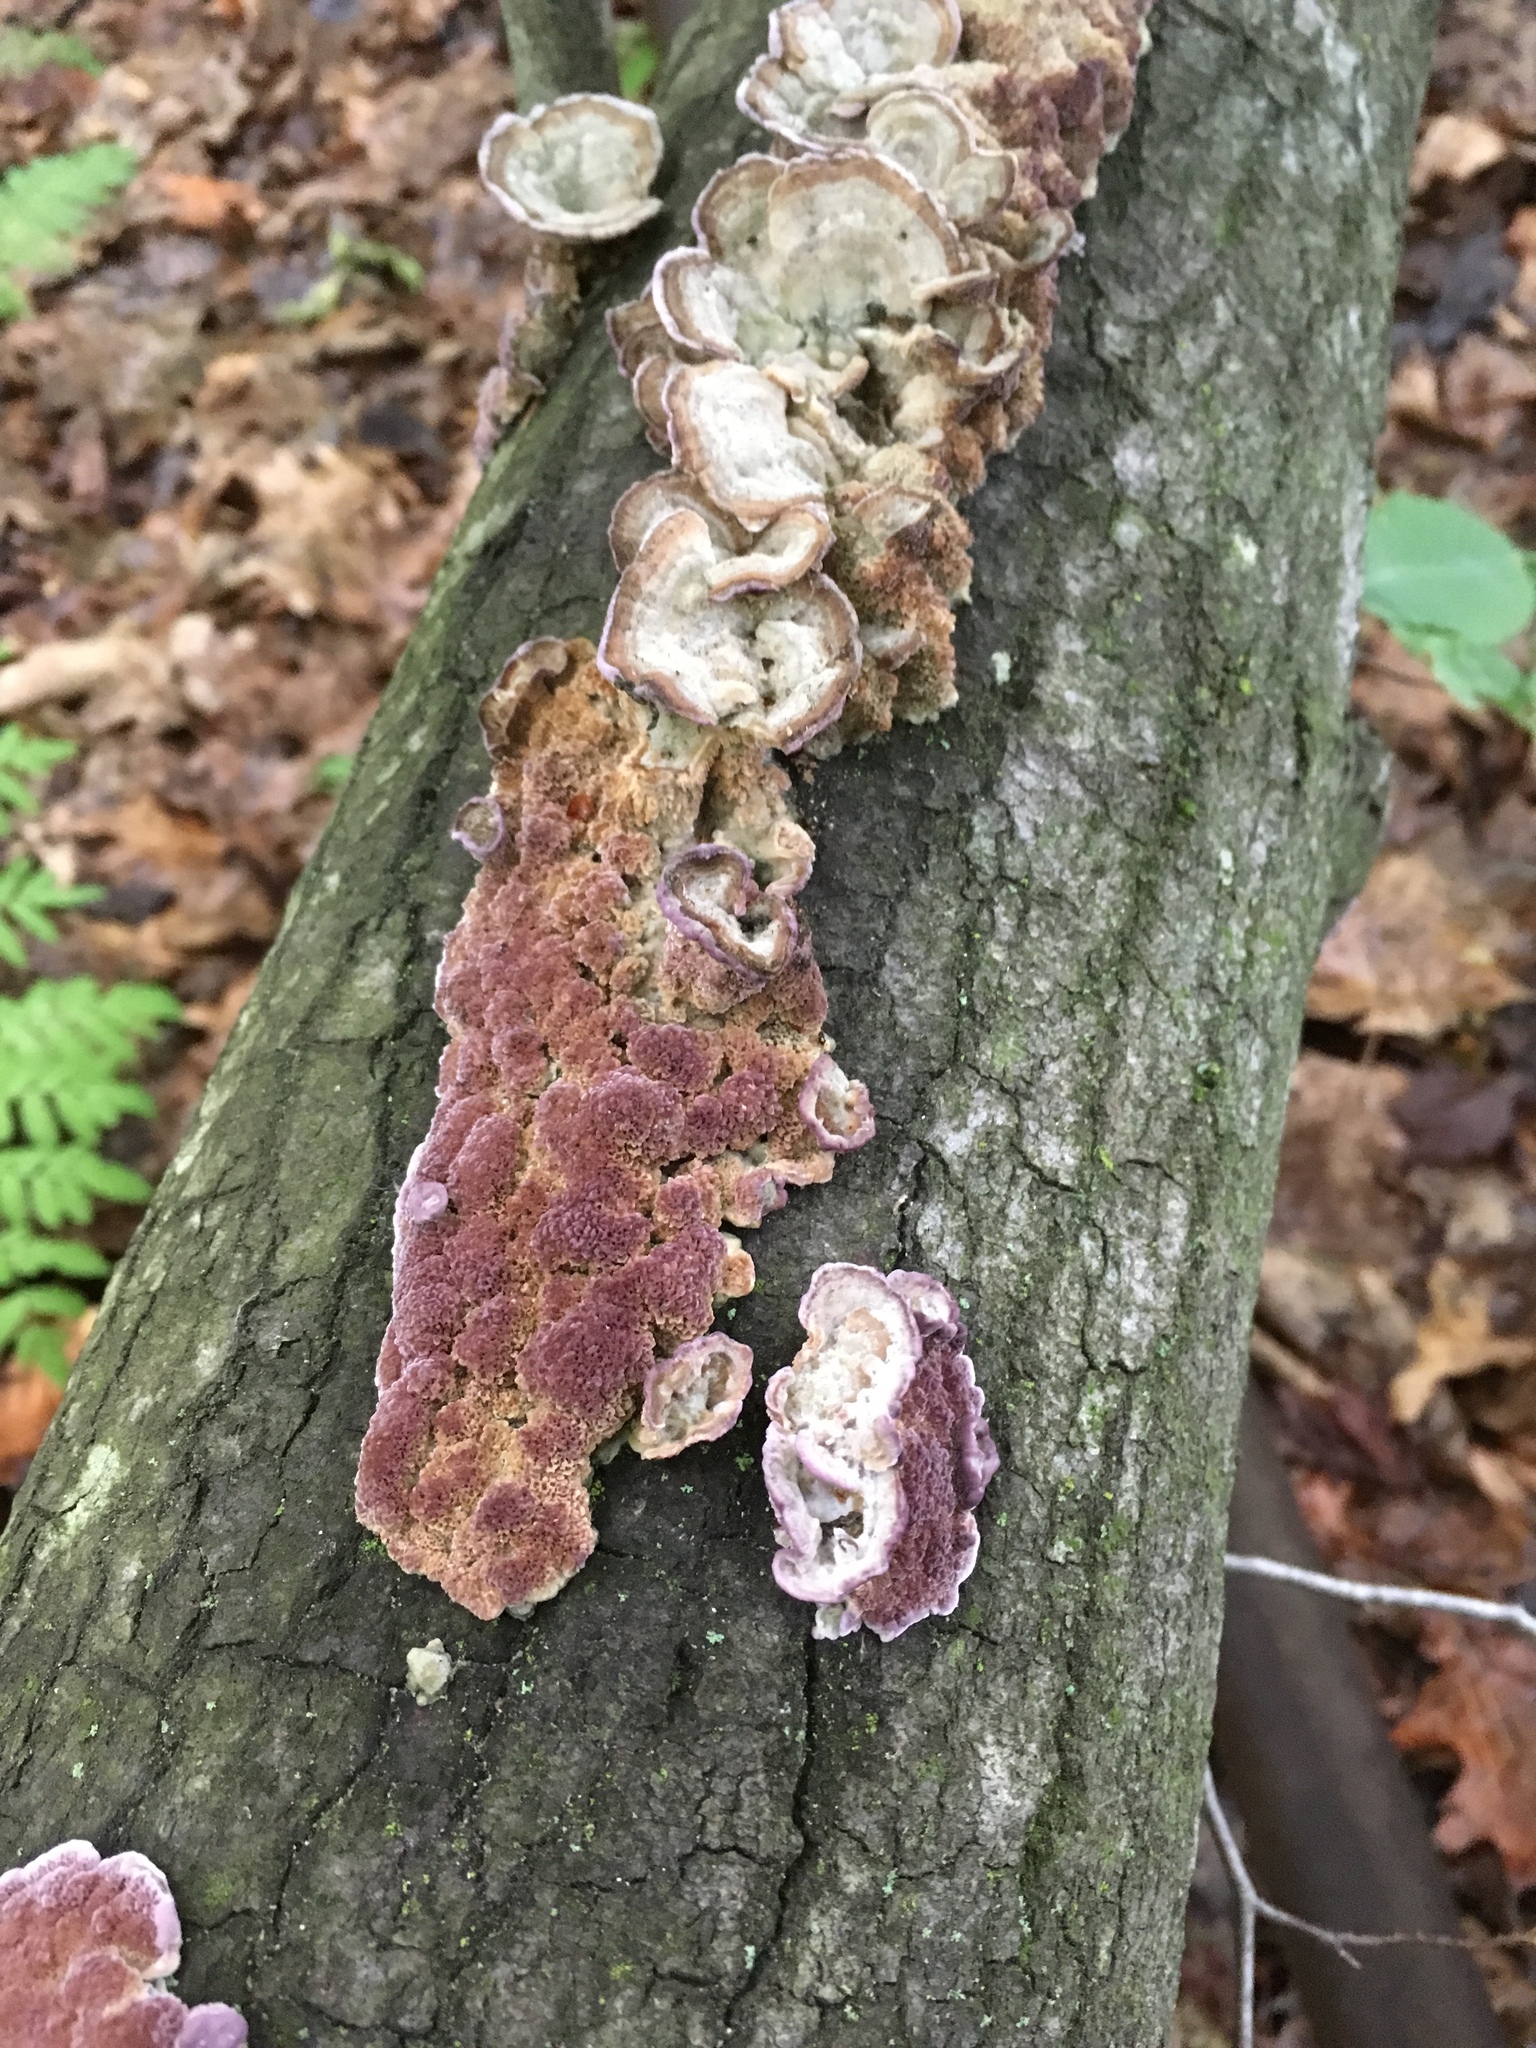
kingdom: Fungi
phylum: Basidiomycota
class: Agaricomycetes
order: Hymenochaetales
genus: Trichaptum
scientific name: Trichaptum subchartaceum
